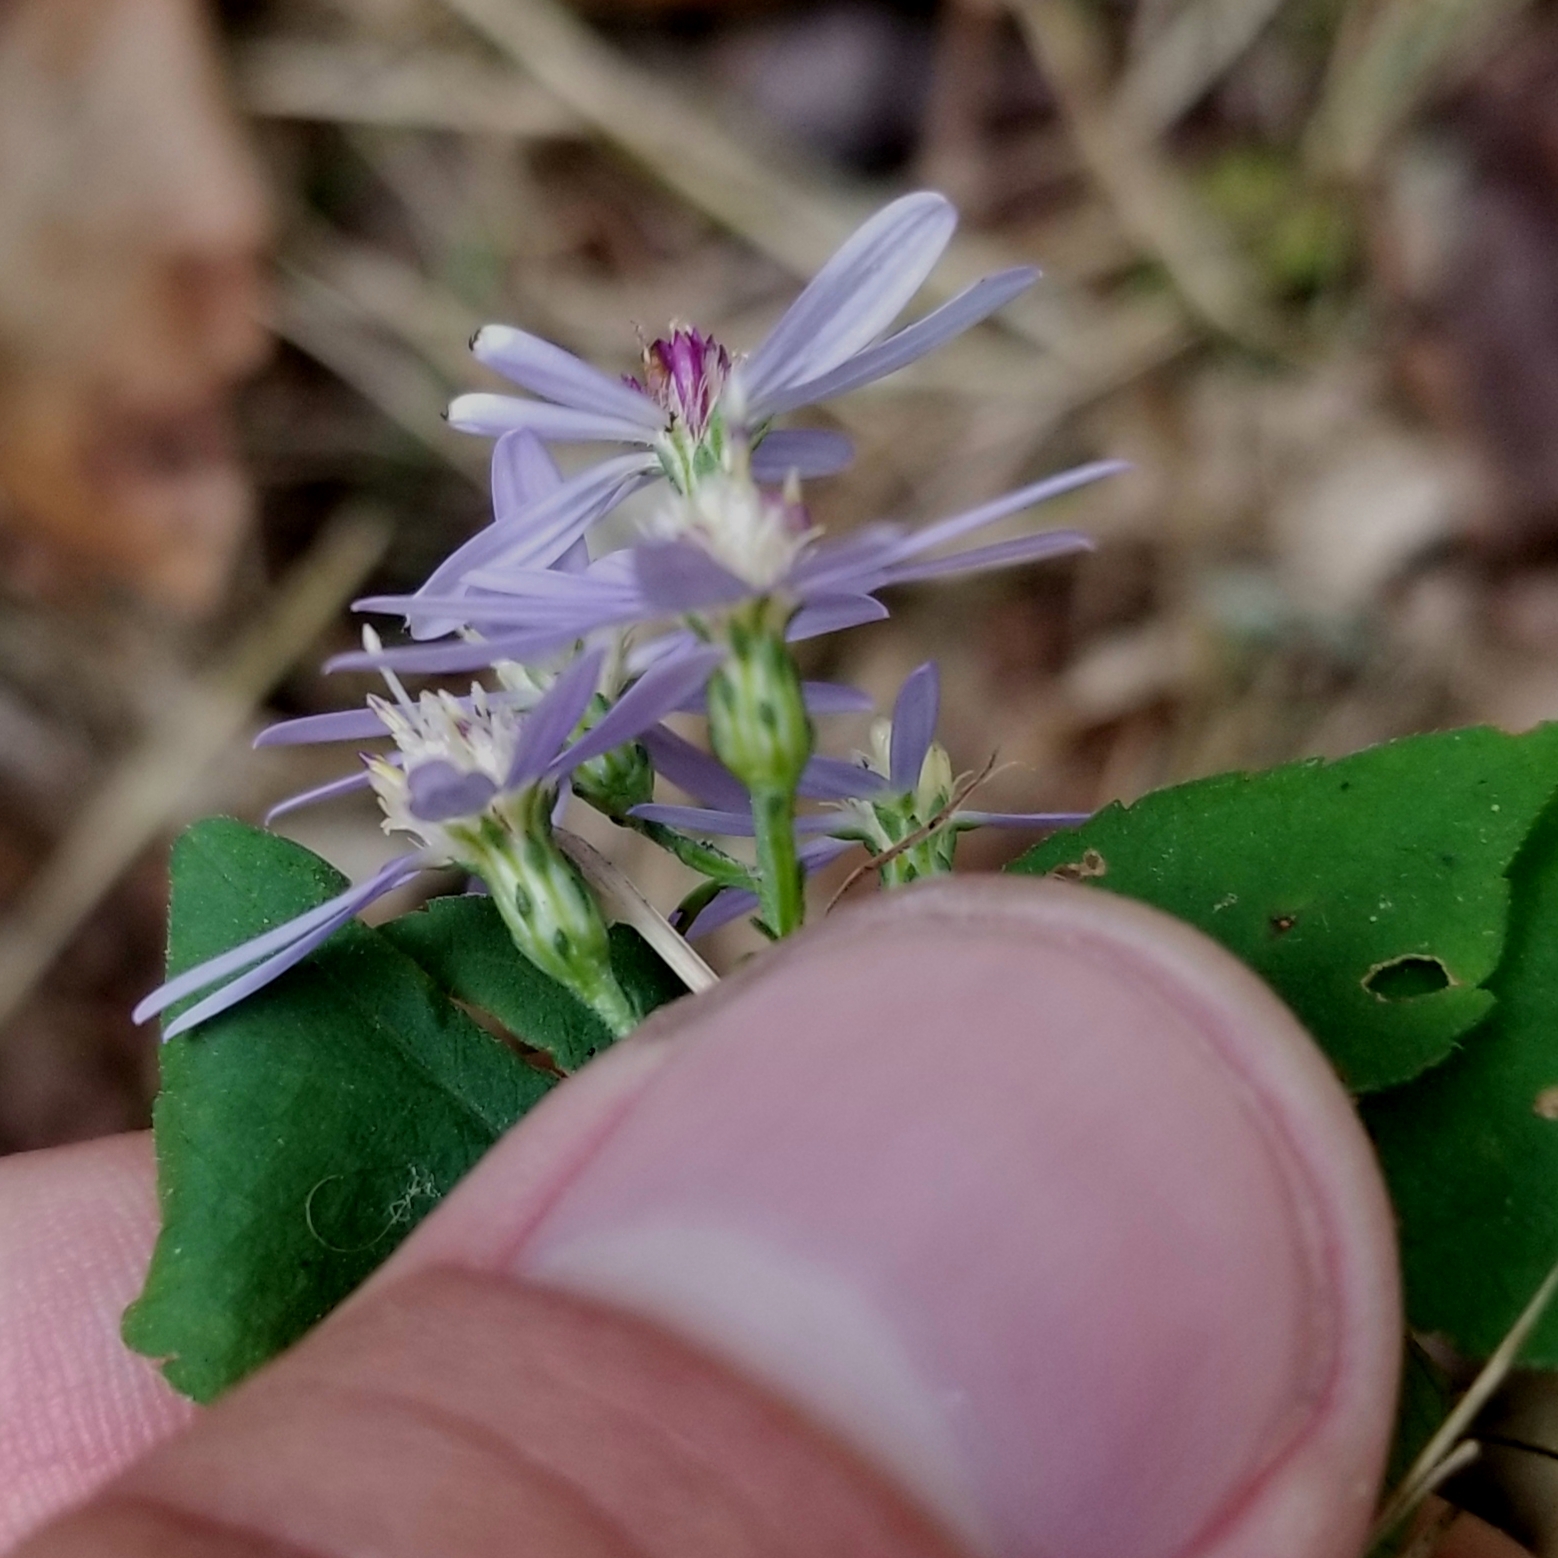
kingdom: Plantae
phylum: Tracheophyta
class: Magnoliopsida
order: Asterales
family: Asteraceae
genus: Symphyotrichum
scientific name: Symphyotrichum cordifolium
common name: Beeweed
